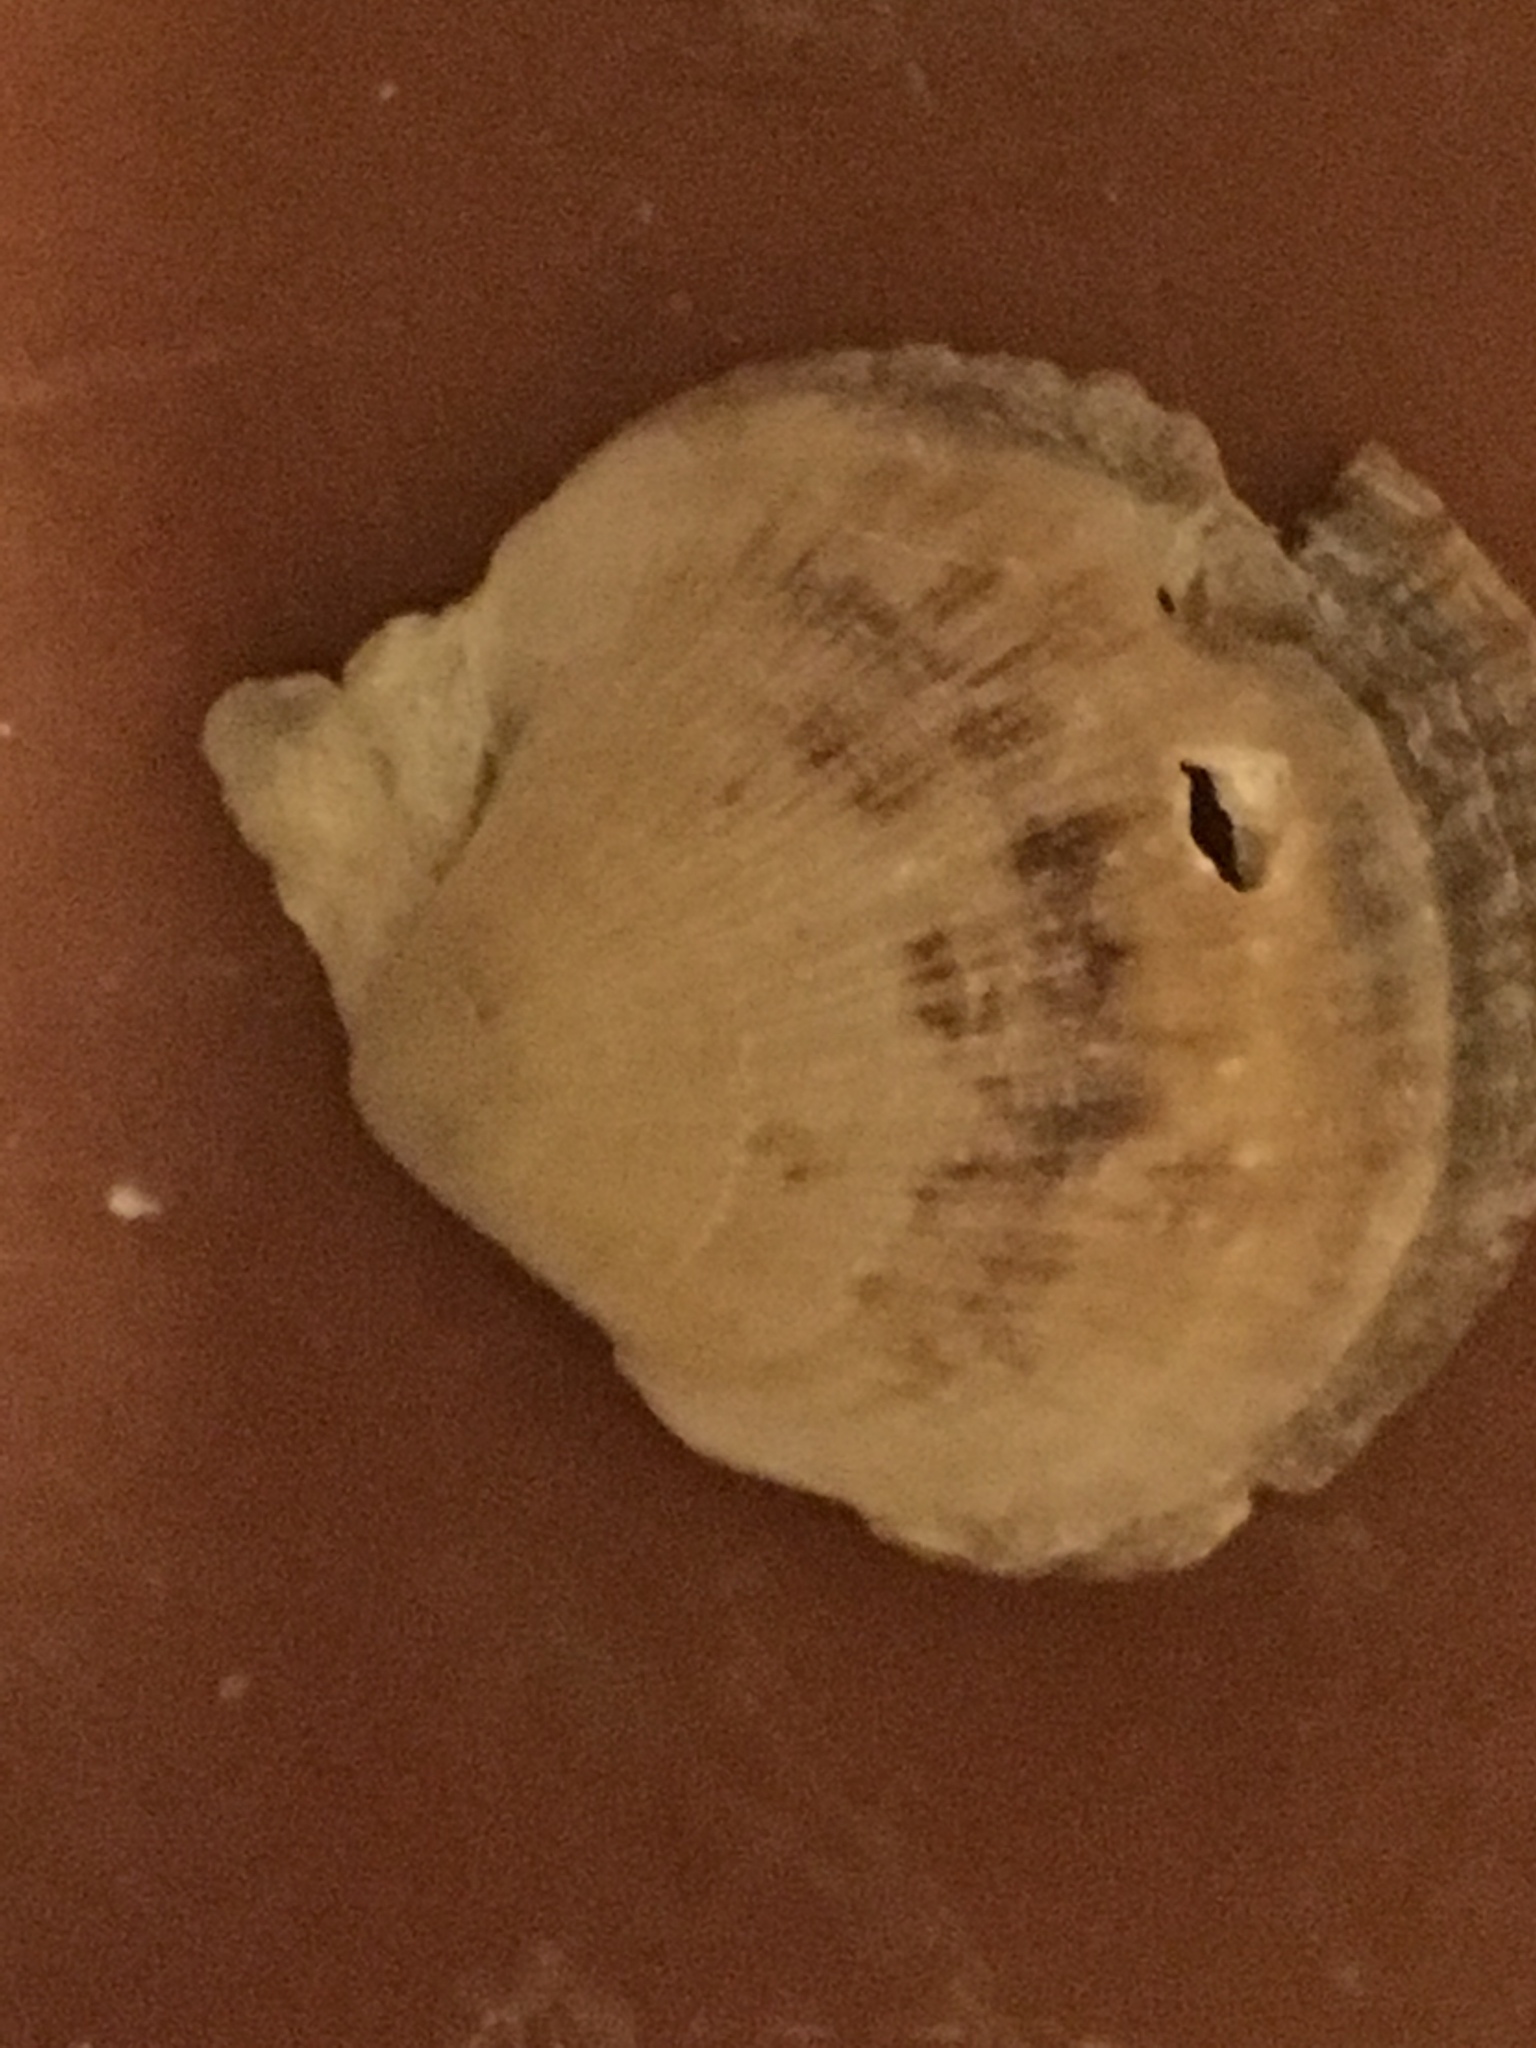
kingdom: Animalia
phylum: Mollusca
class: Bivalvia
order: Pectinida
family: Pectinidae
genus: Crassadoma
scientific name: Crassadoma gigantea
